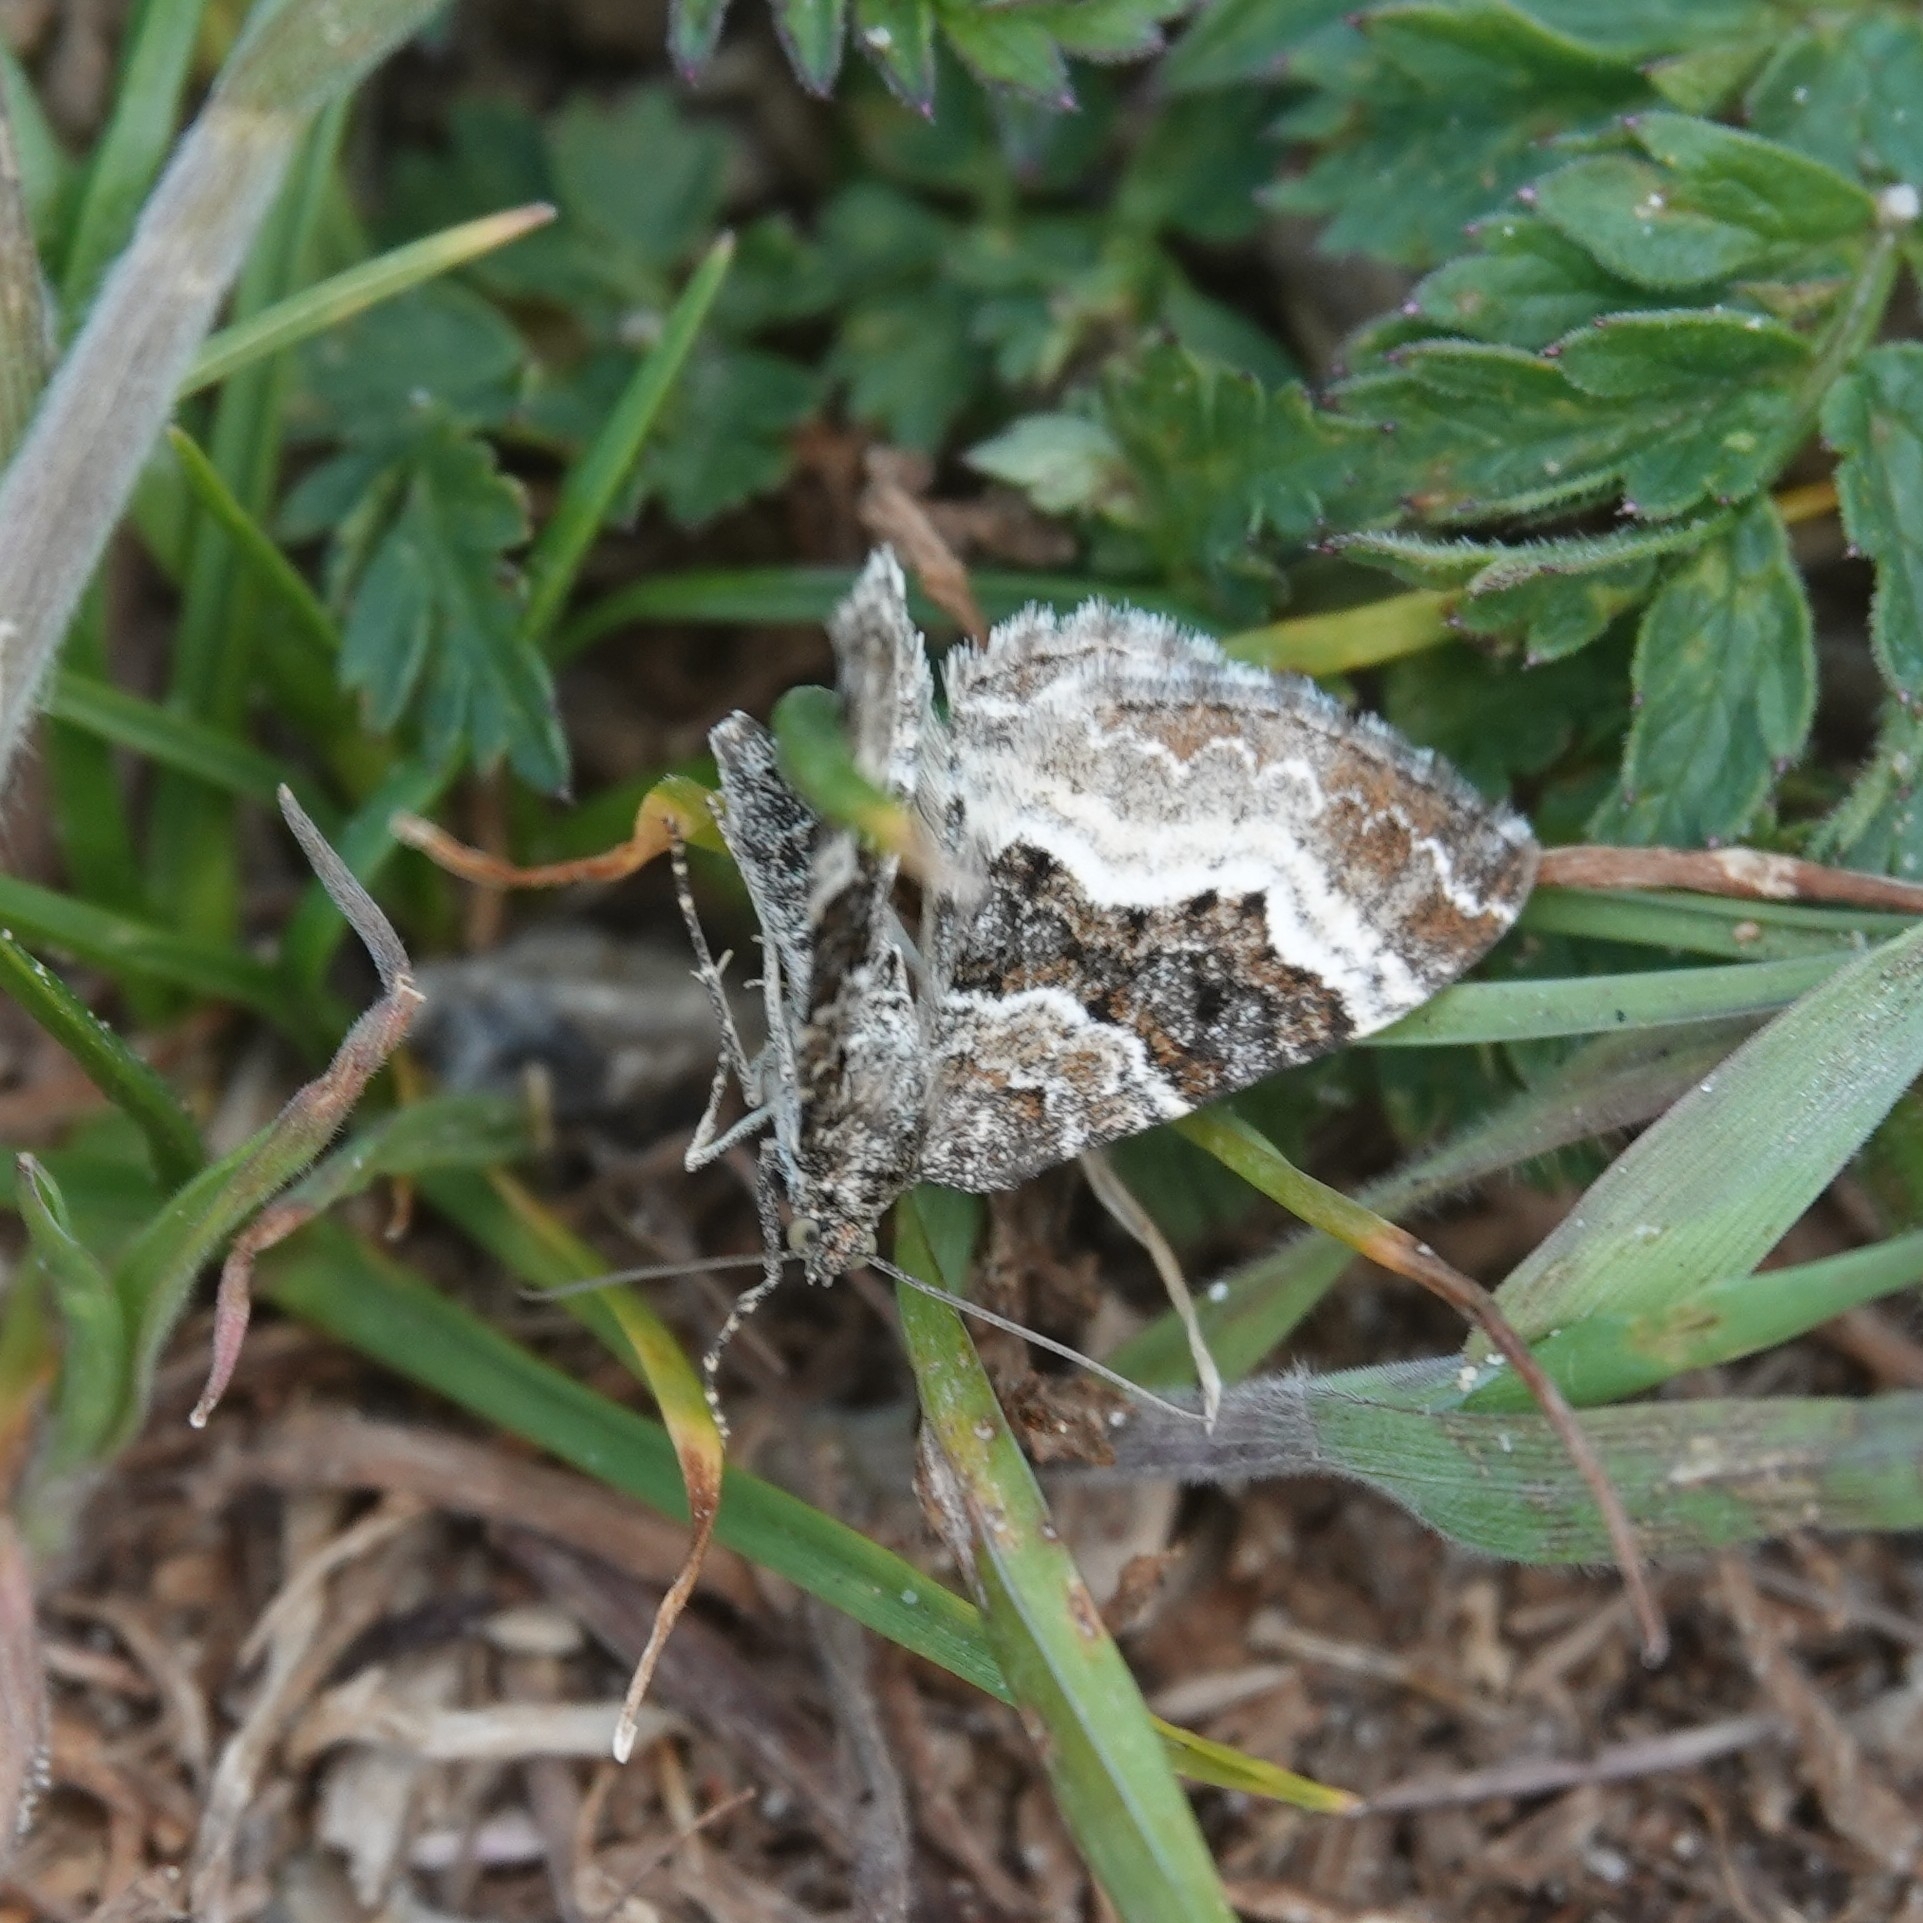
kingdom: Animalia
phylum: Arthropoda
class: Insecta
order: Lepidoptera
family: Geometridae
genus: Epirrhoe
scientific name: Epirrhoe alternata
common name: Common carpet
